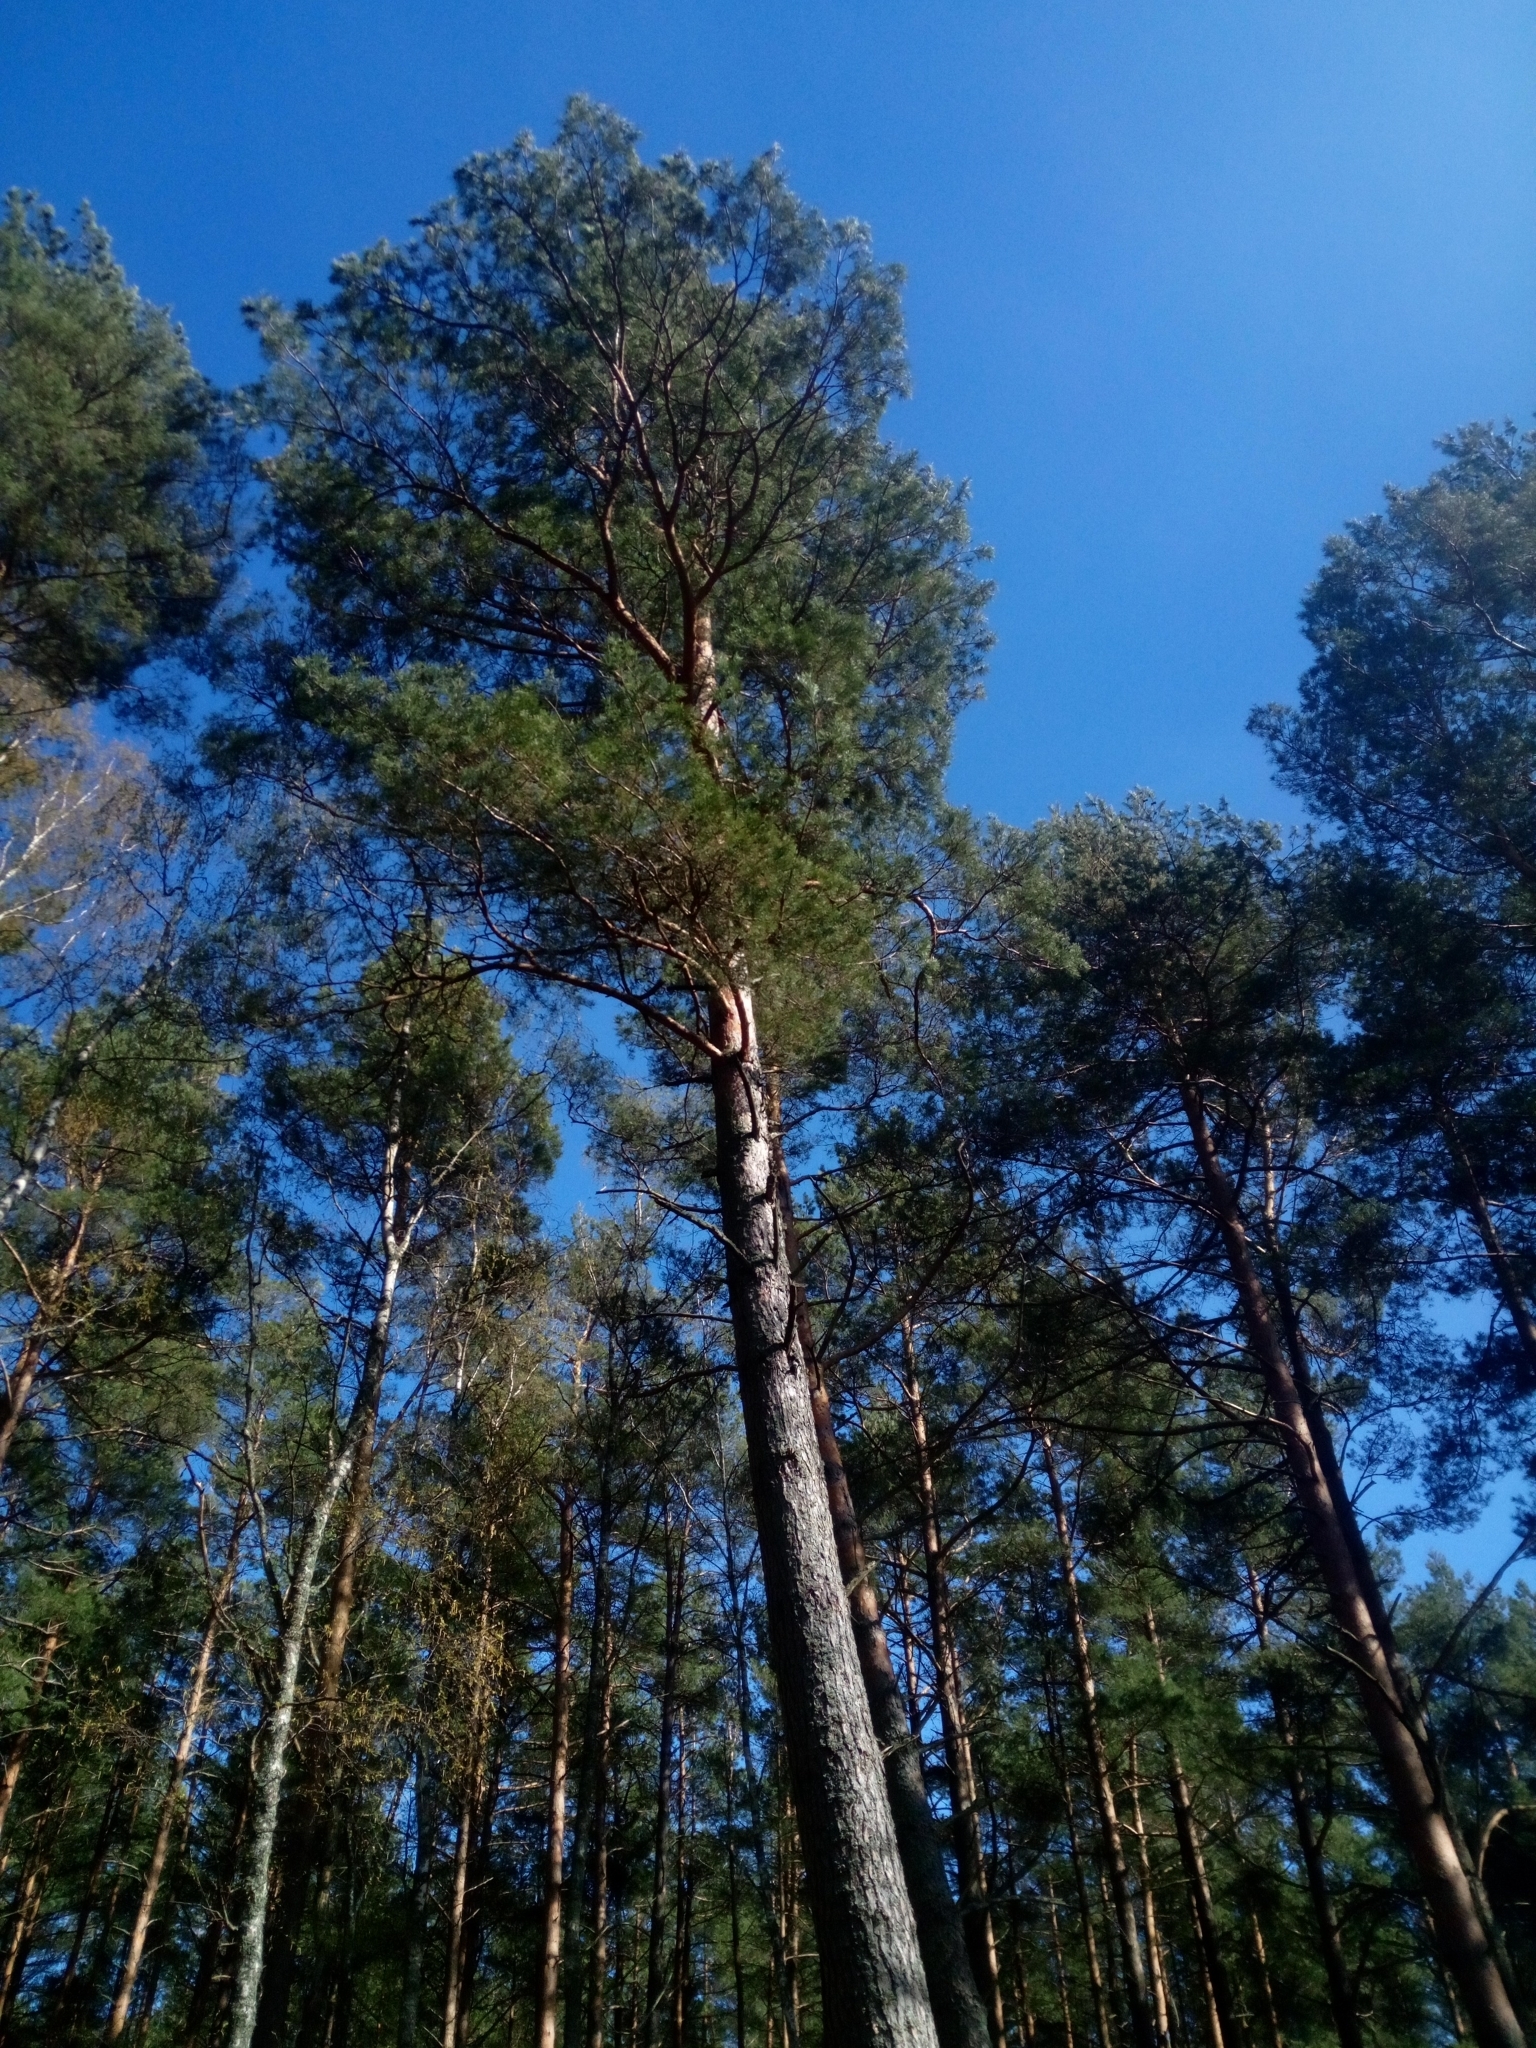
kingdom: Plantae
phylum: Tracheophyta
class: Pinopsida
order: Pinales
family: Pinaceae
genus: Pinus
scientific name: Pinus sylvestris
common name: Scots pine
